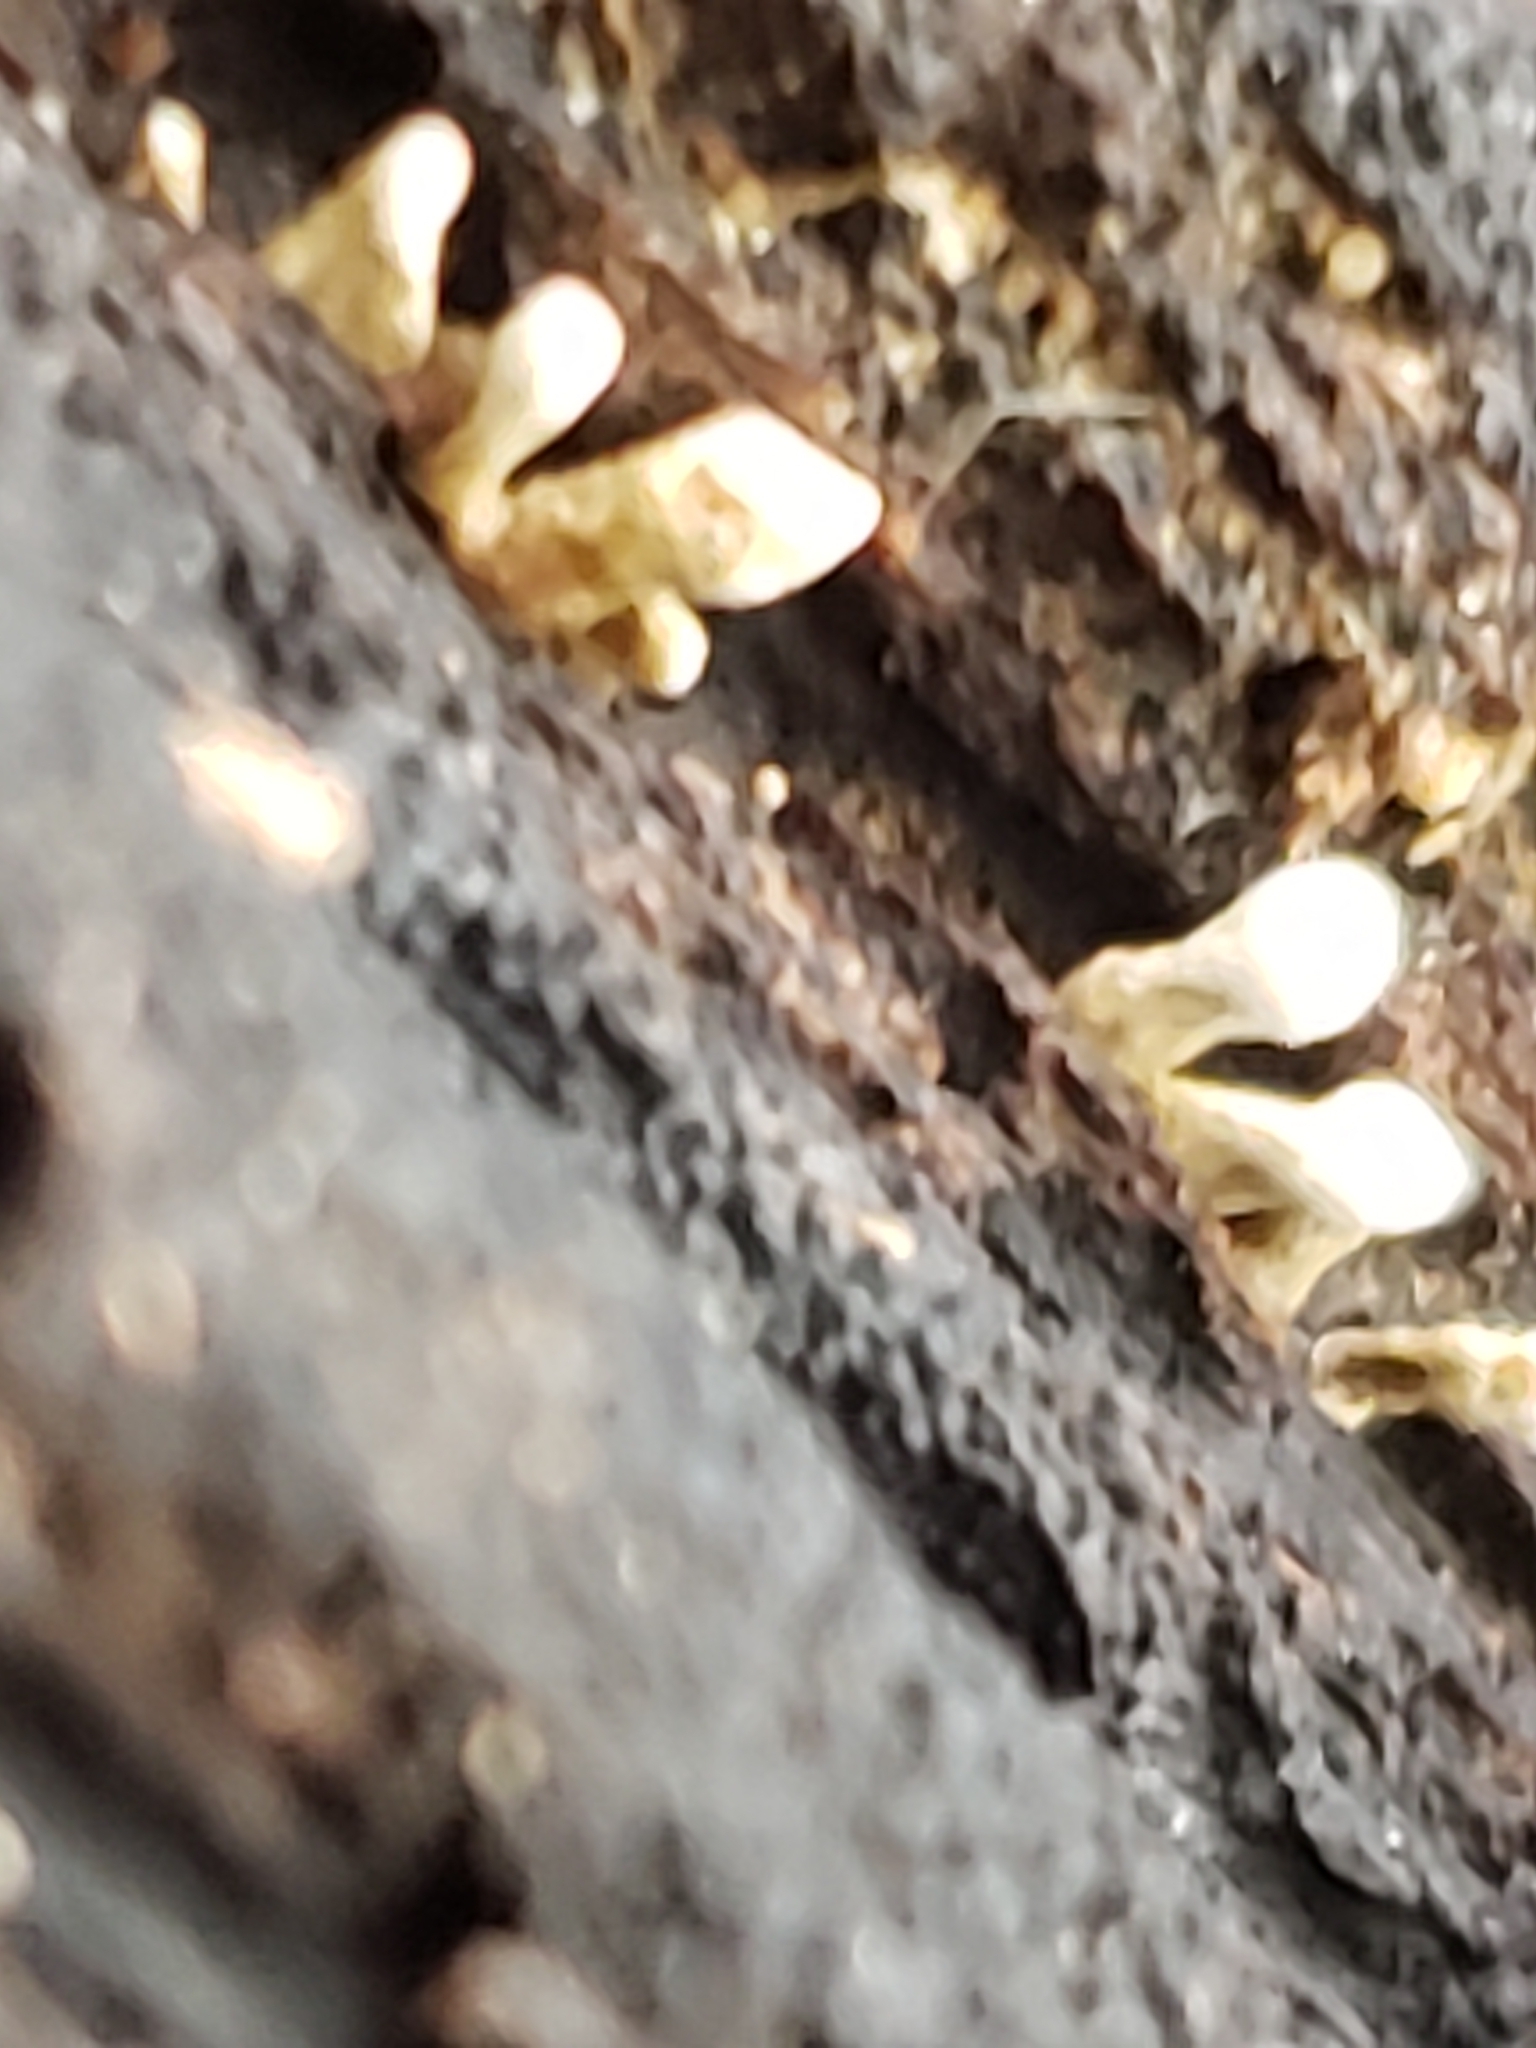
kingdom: Fungi
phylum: Basidiomycota
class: Atractiellomycetes
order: Atractiellales
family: Phleogenaceae
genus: Phleogena
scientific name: Phleogena faginea
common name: Fenugreek stalkball
